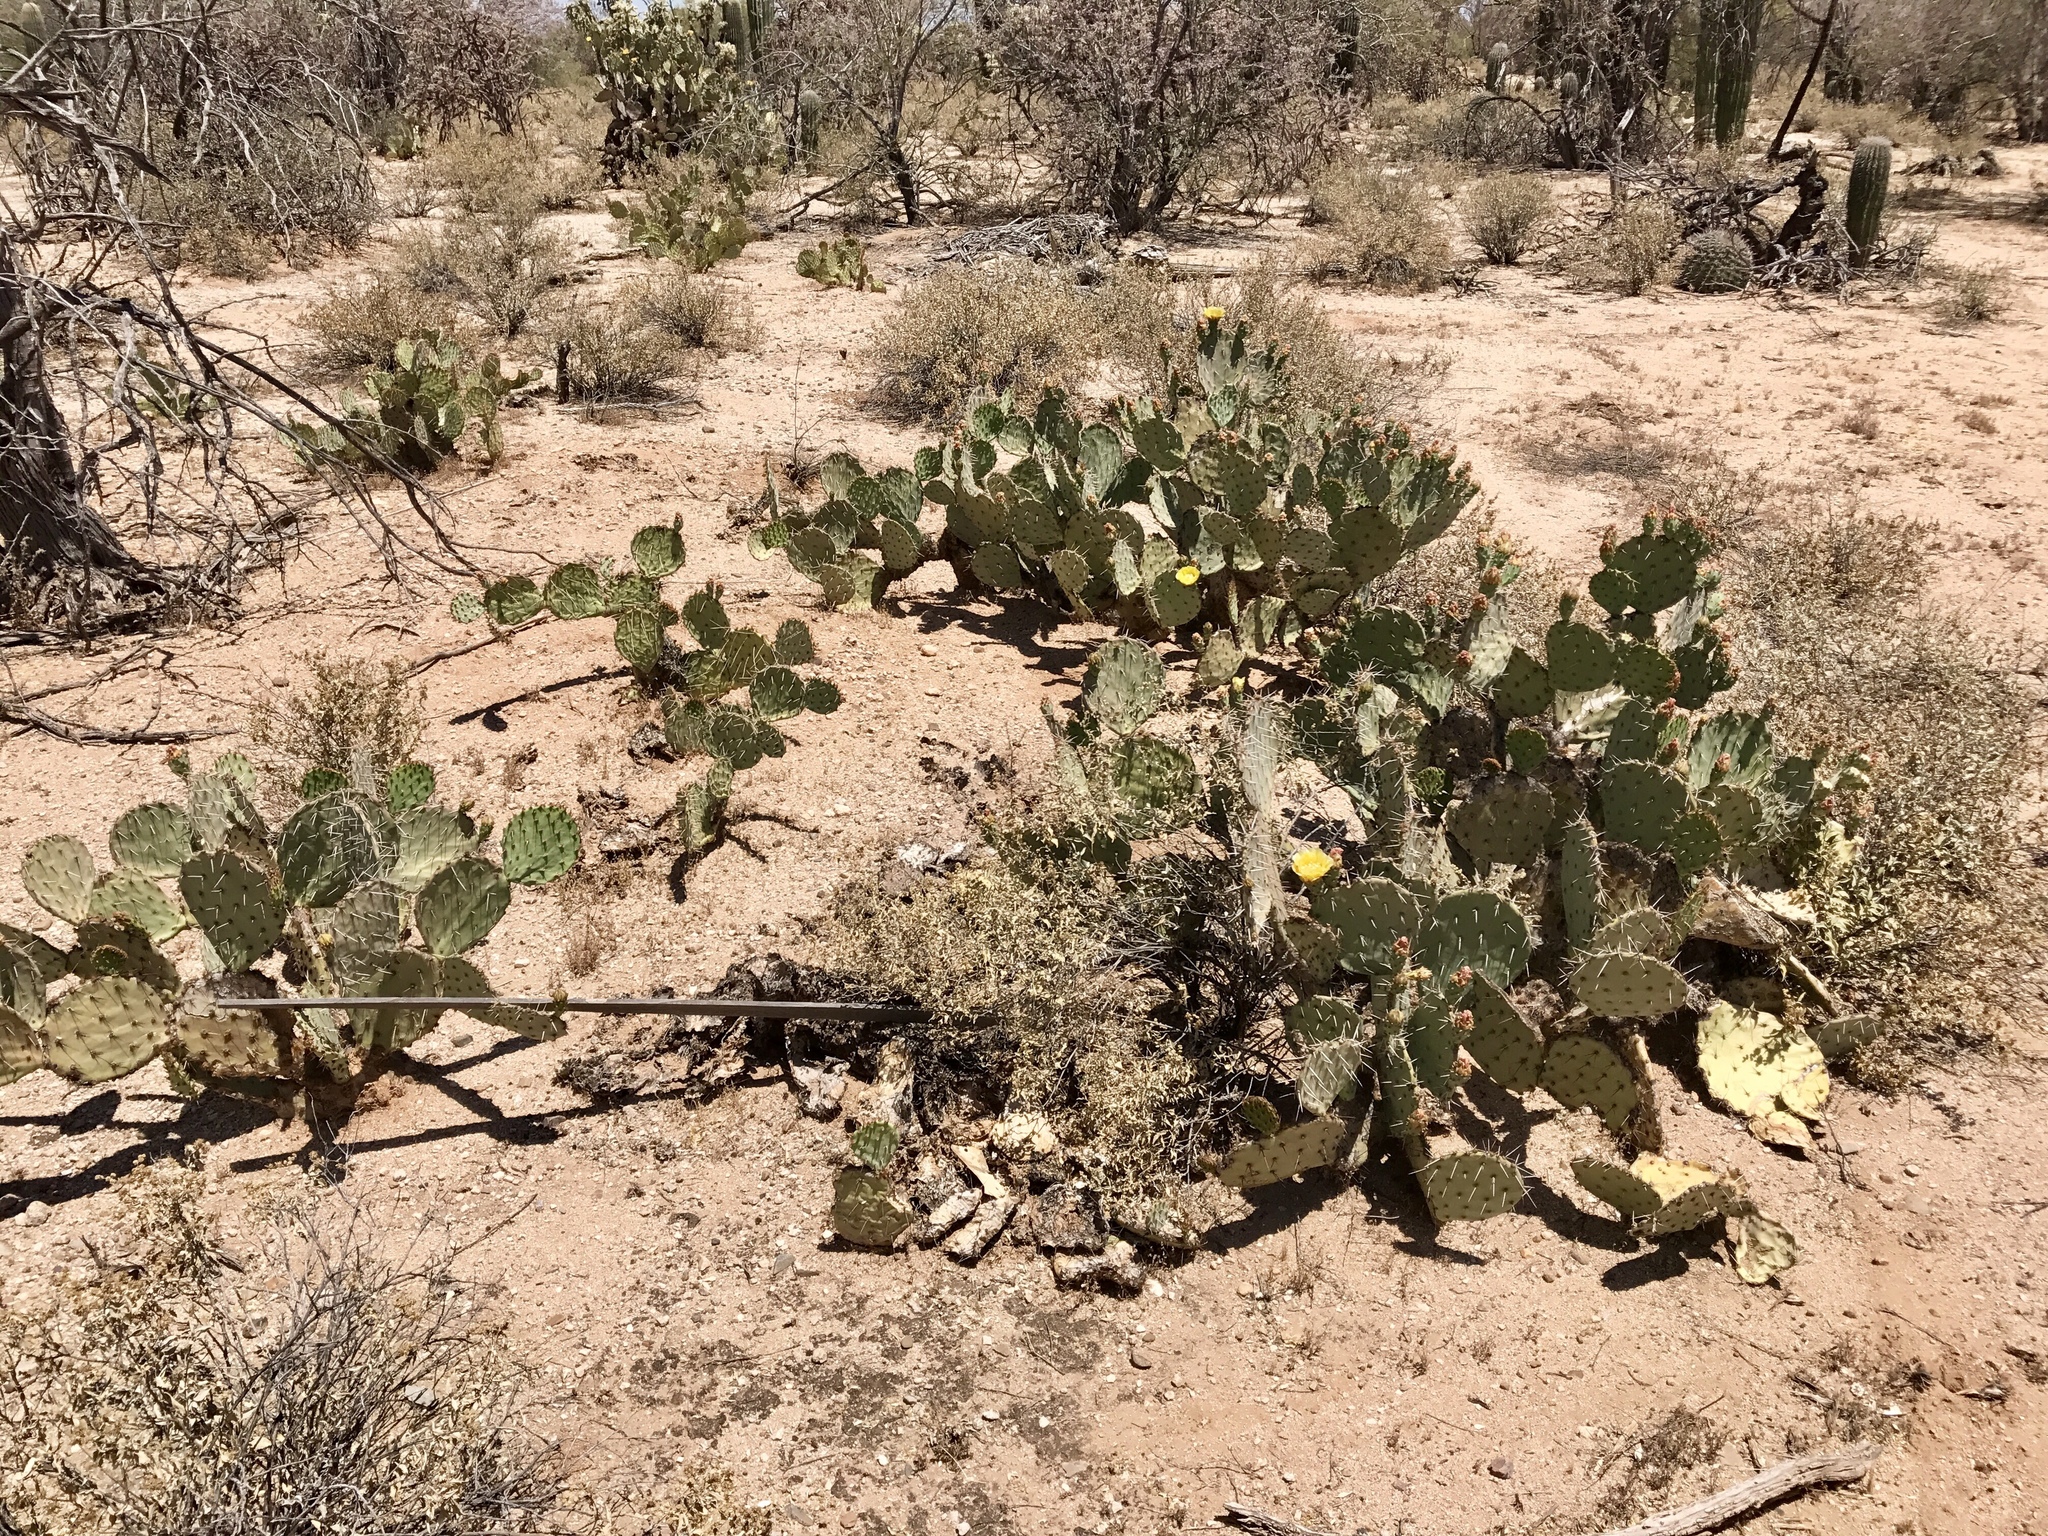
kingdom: Plantae
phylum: Tracheophyta
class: Magnoliopsida
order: Caryophyllales
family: Cactaceae
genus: Opuntia
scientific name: Opuntia engelmannii
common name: Cactus-apple
